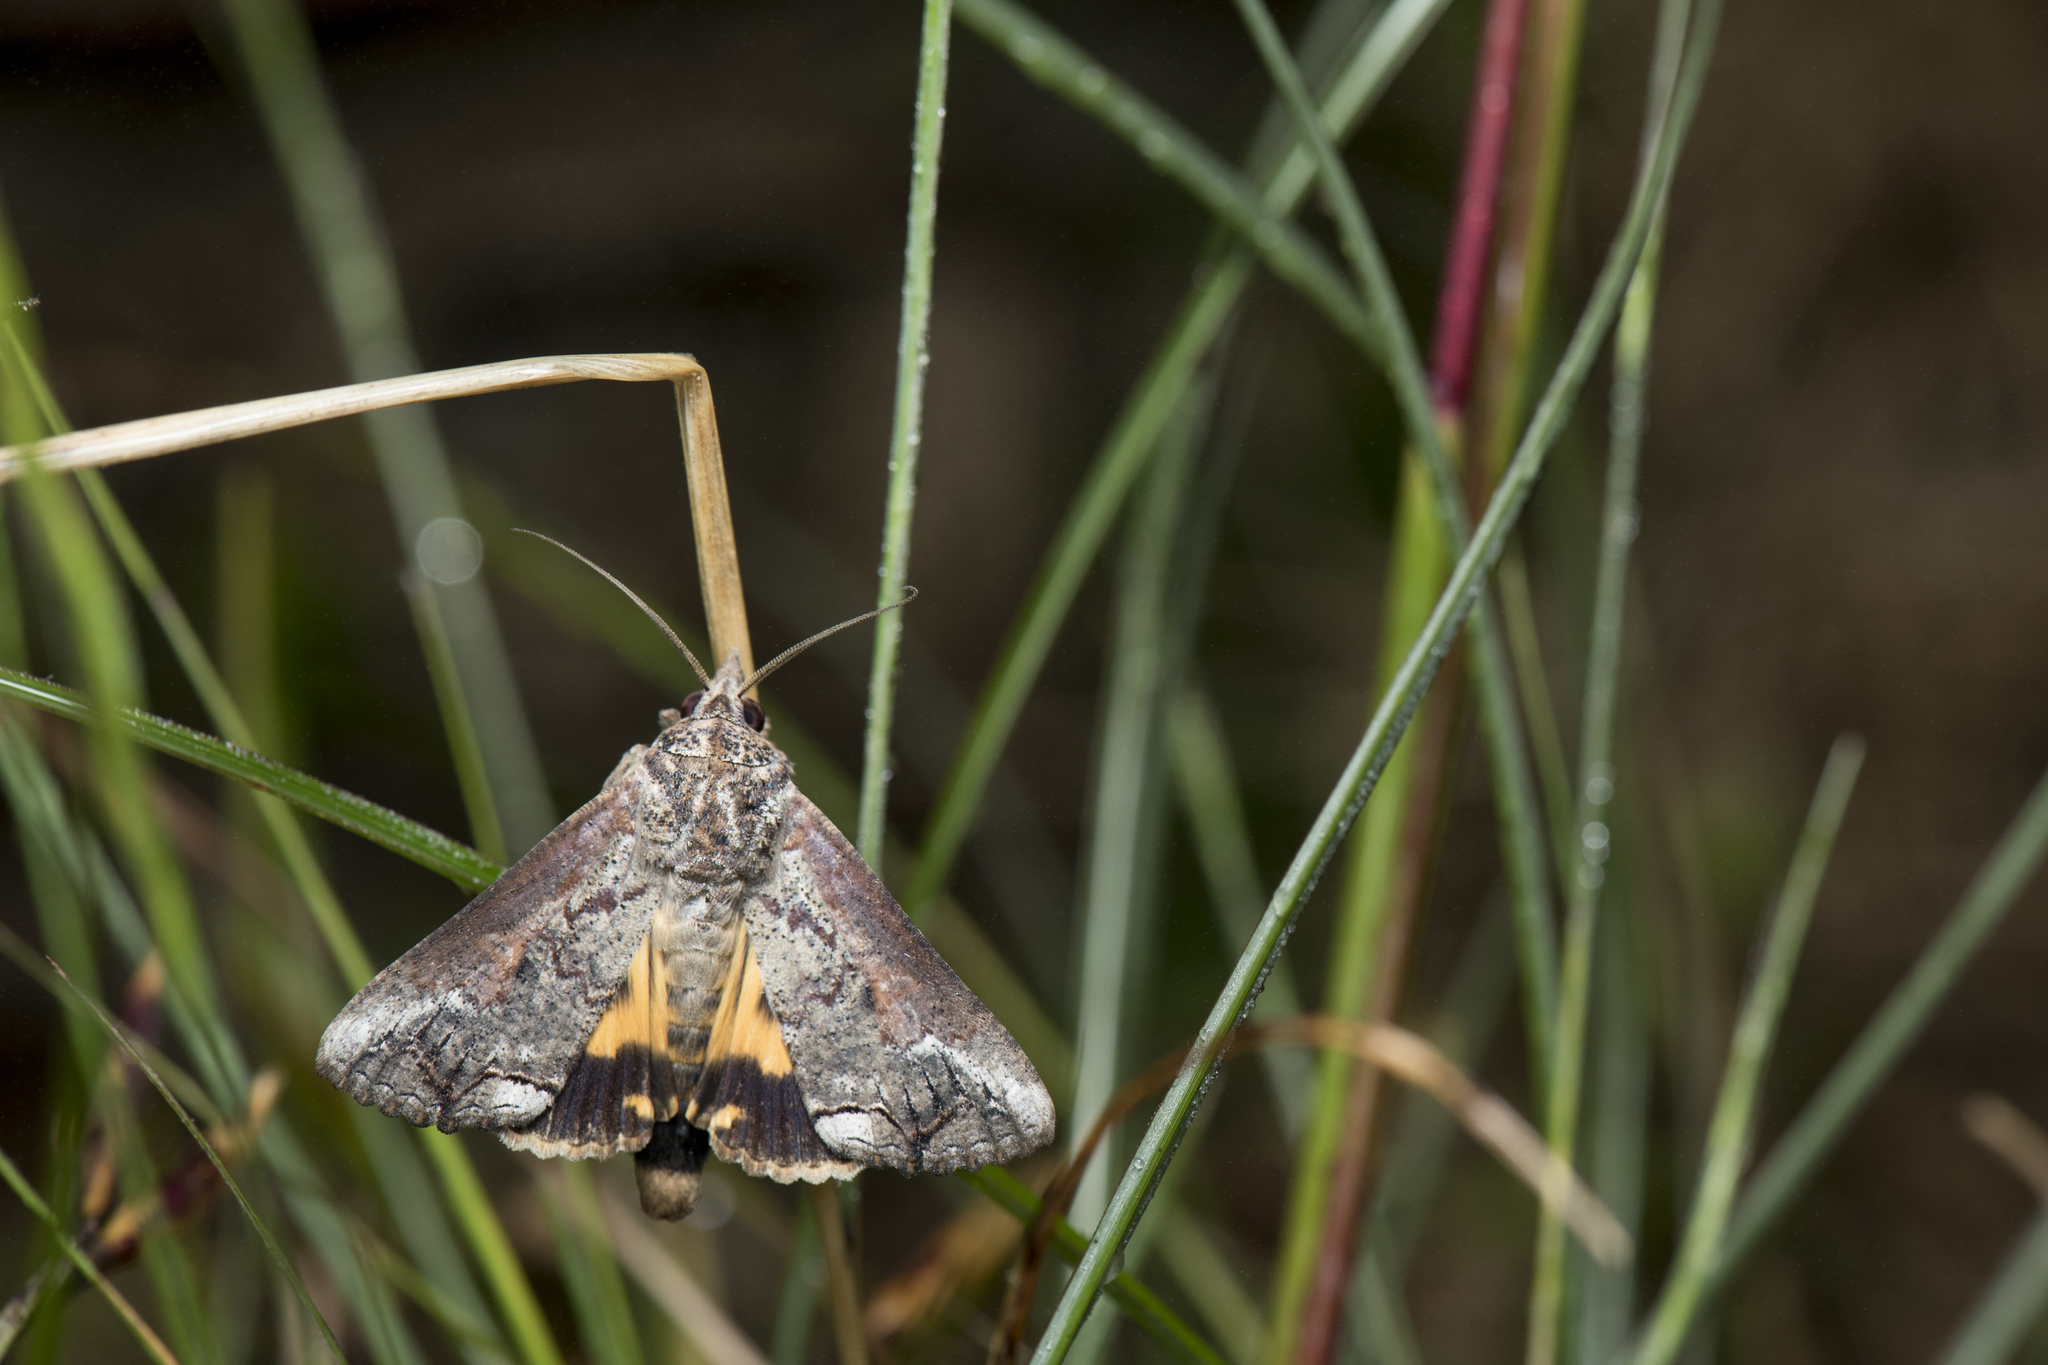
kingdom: Animalia
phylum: Arthropoda
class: Insecta
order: Lepidoptera
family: Erebidae
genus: Hypocala
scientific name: Hypocala deflorata
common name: Moth
